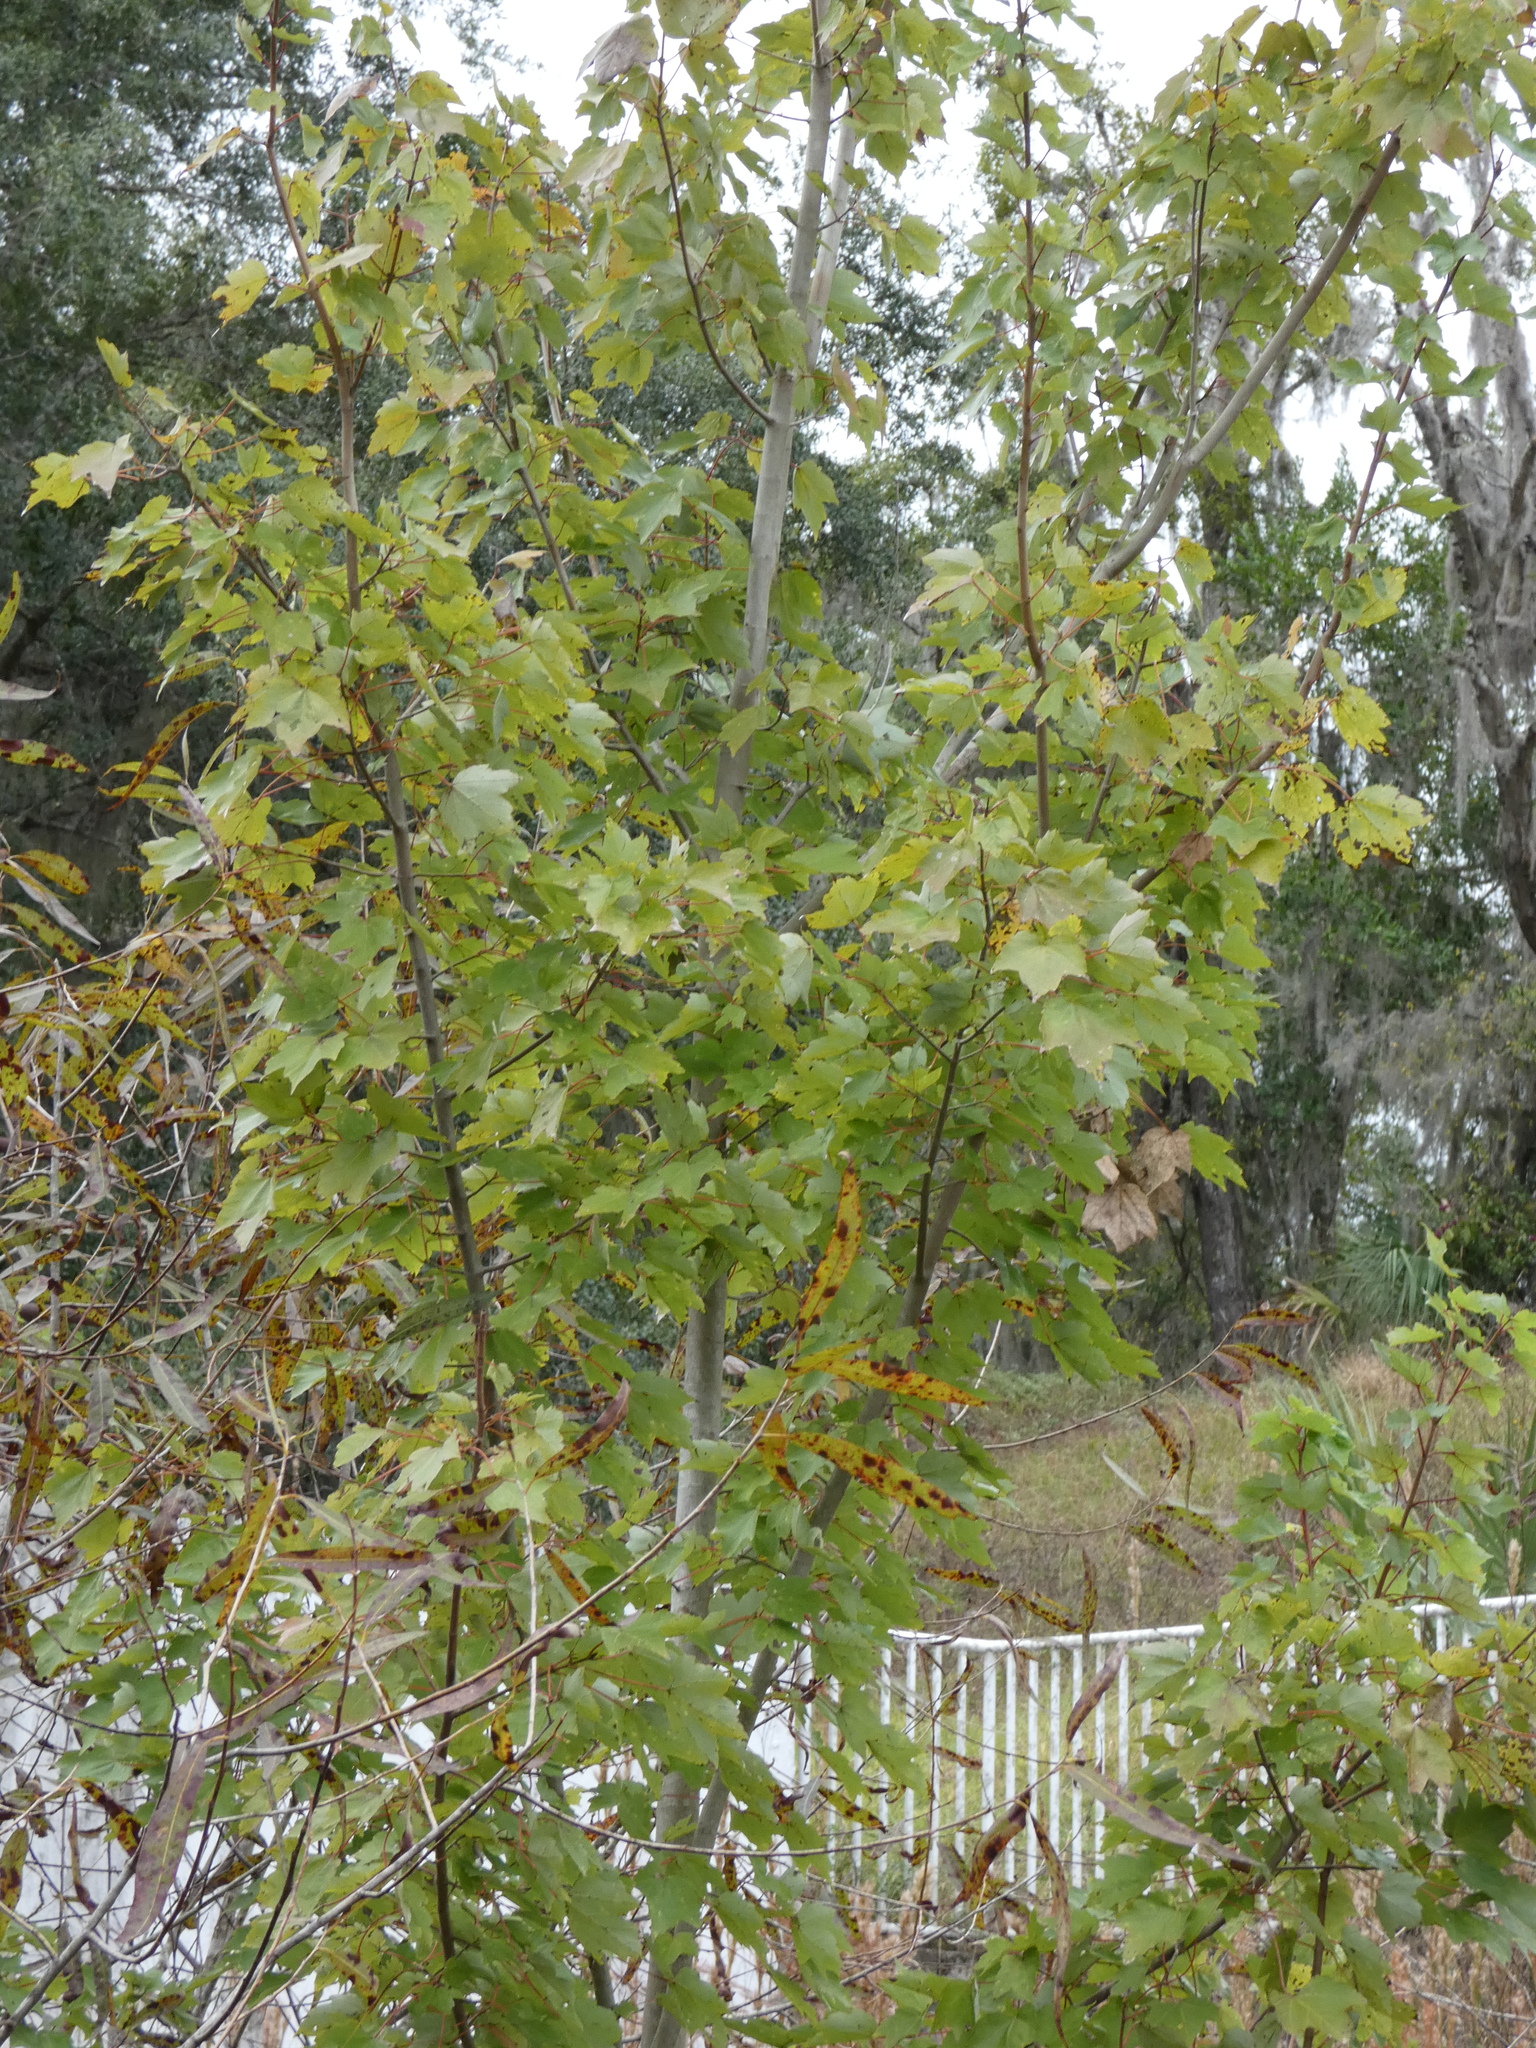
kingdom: Plantae
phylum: Tracheophyta
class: Magnoliopsida
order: Sapindales
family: Sapindaceae
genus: Acer
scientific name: Acer rubrum
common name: Red maple
